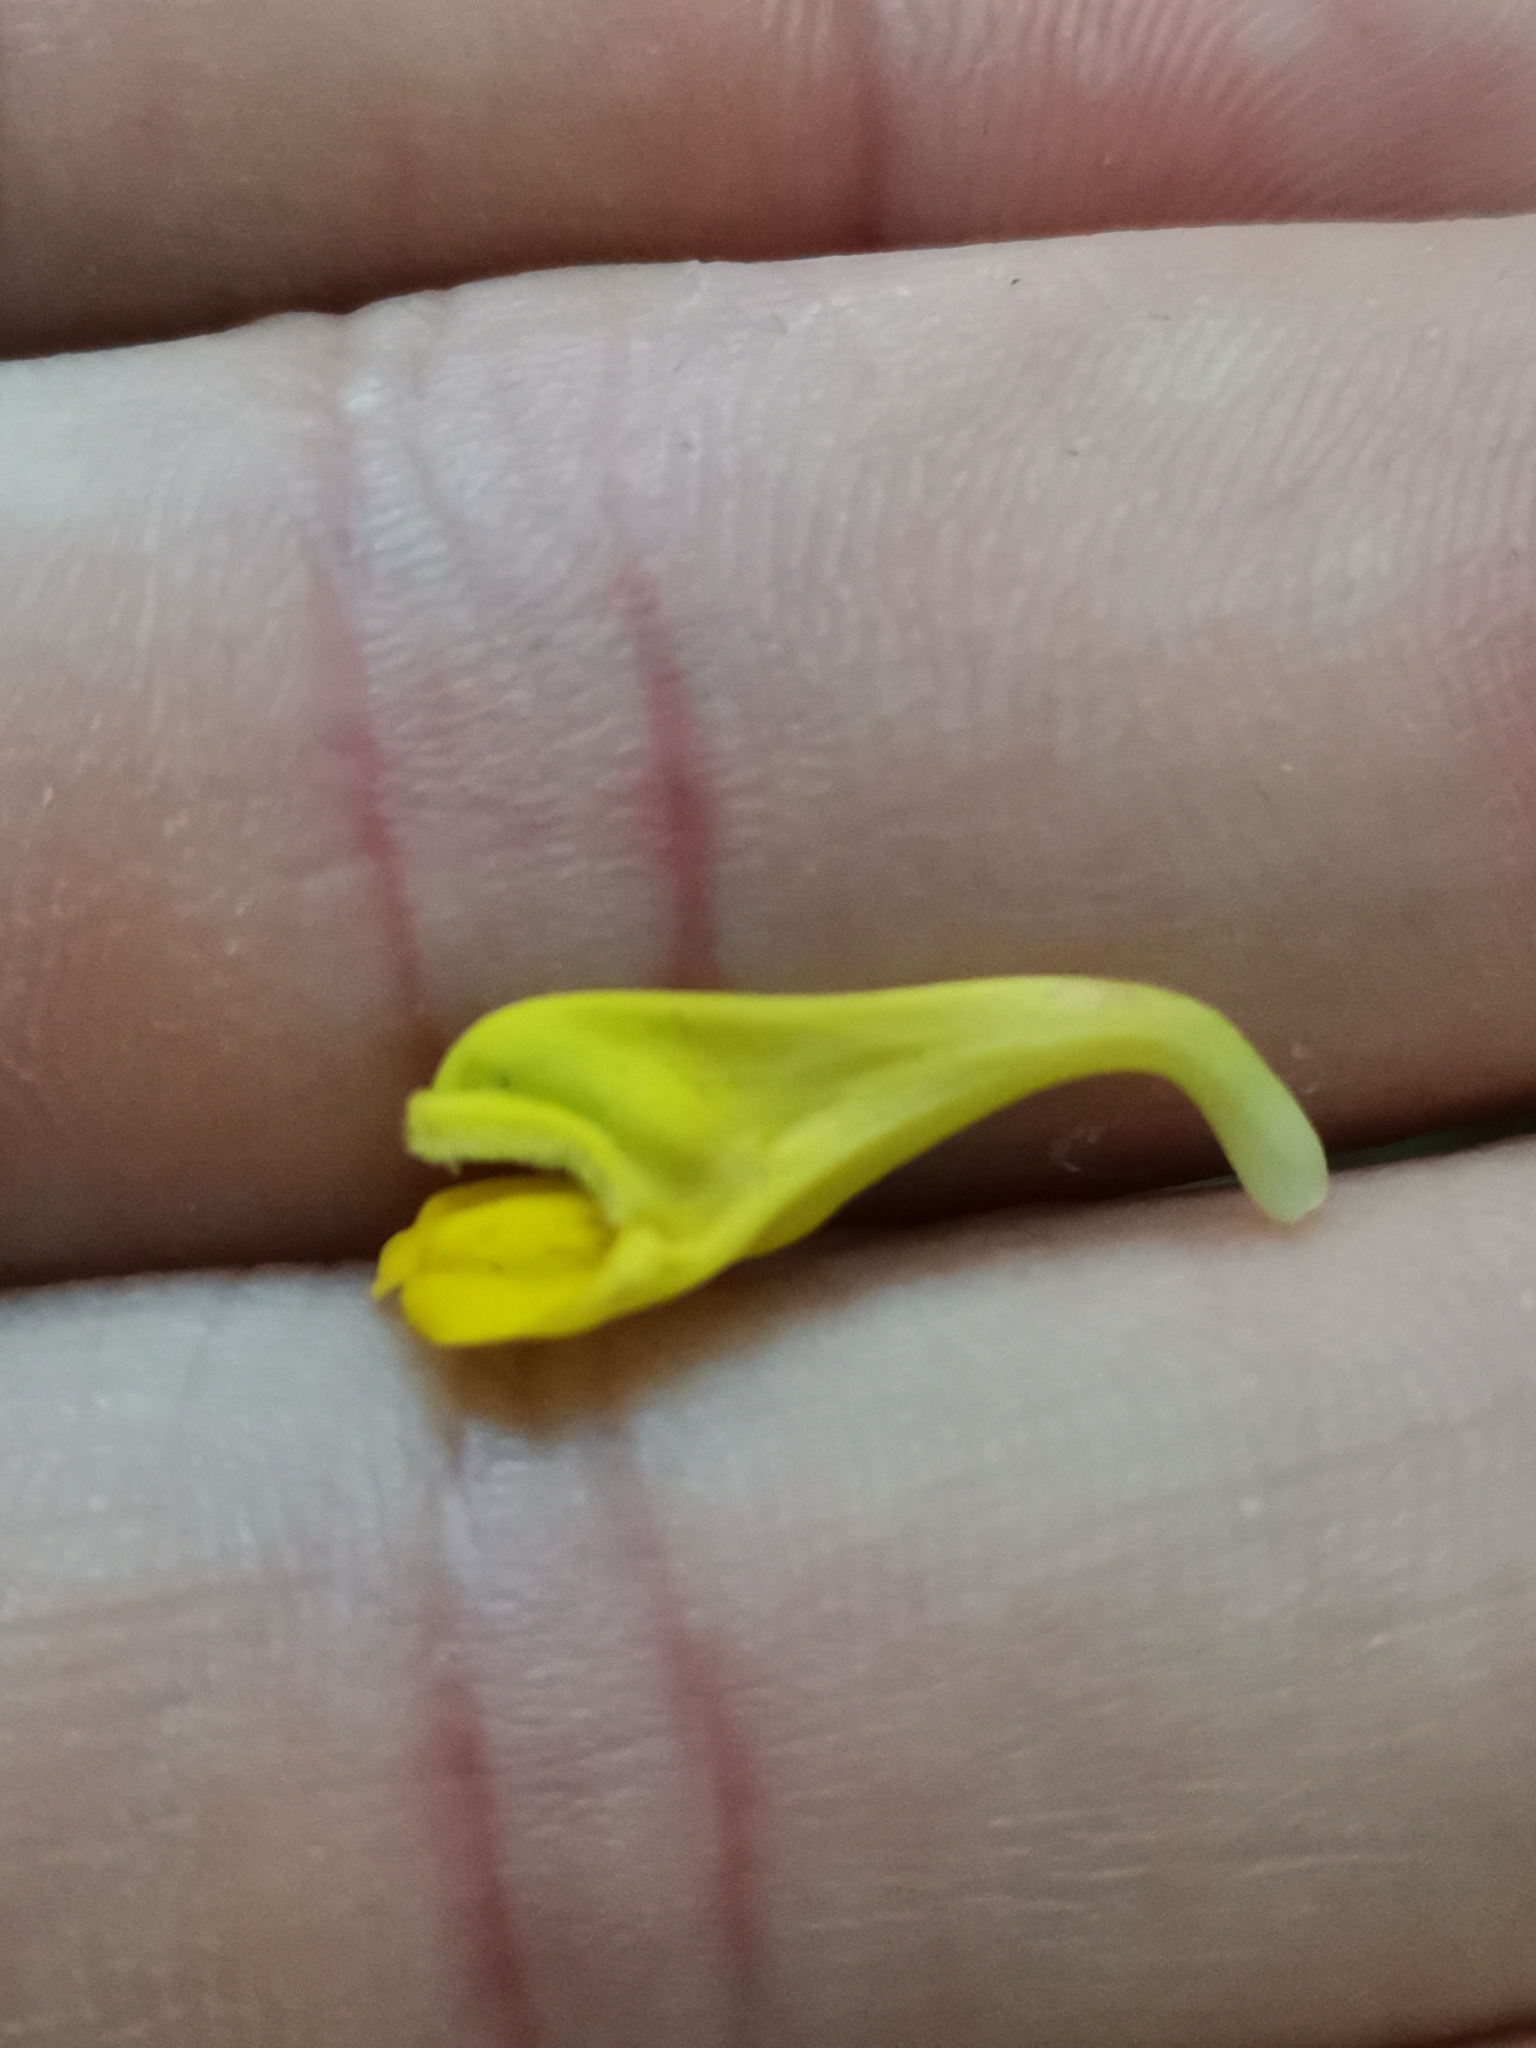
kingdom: Plantae
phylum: Tracheophyta
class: Magnoliopsida
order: Lamiales
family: Orobanchaceae
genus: Melampyrum
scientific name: Melampyrum nemorosum
